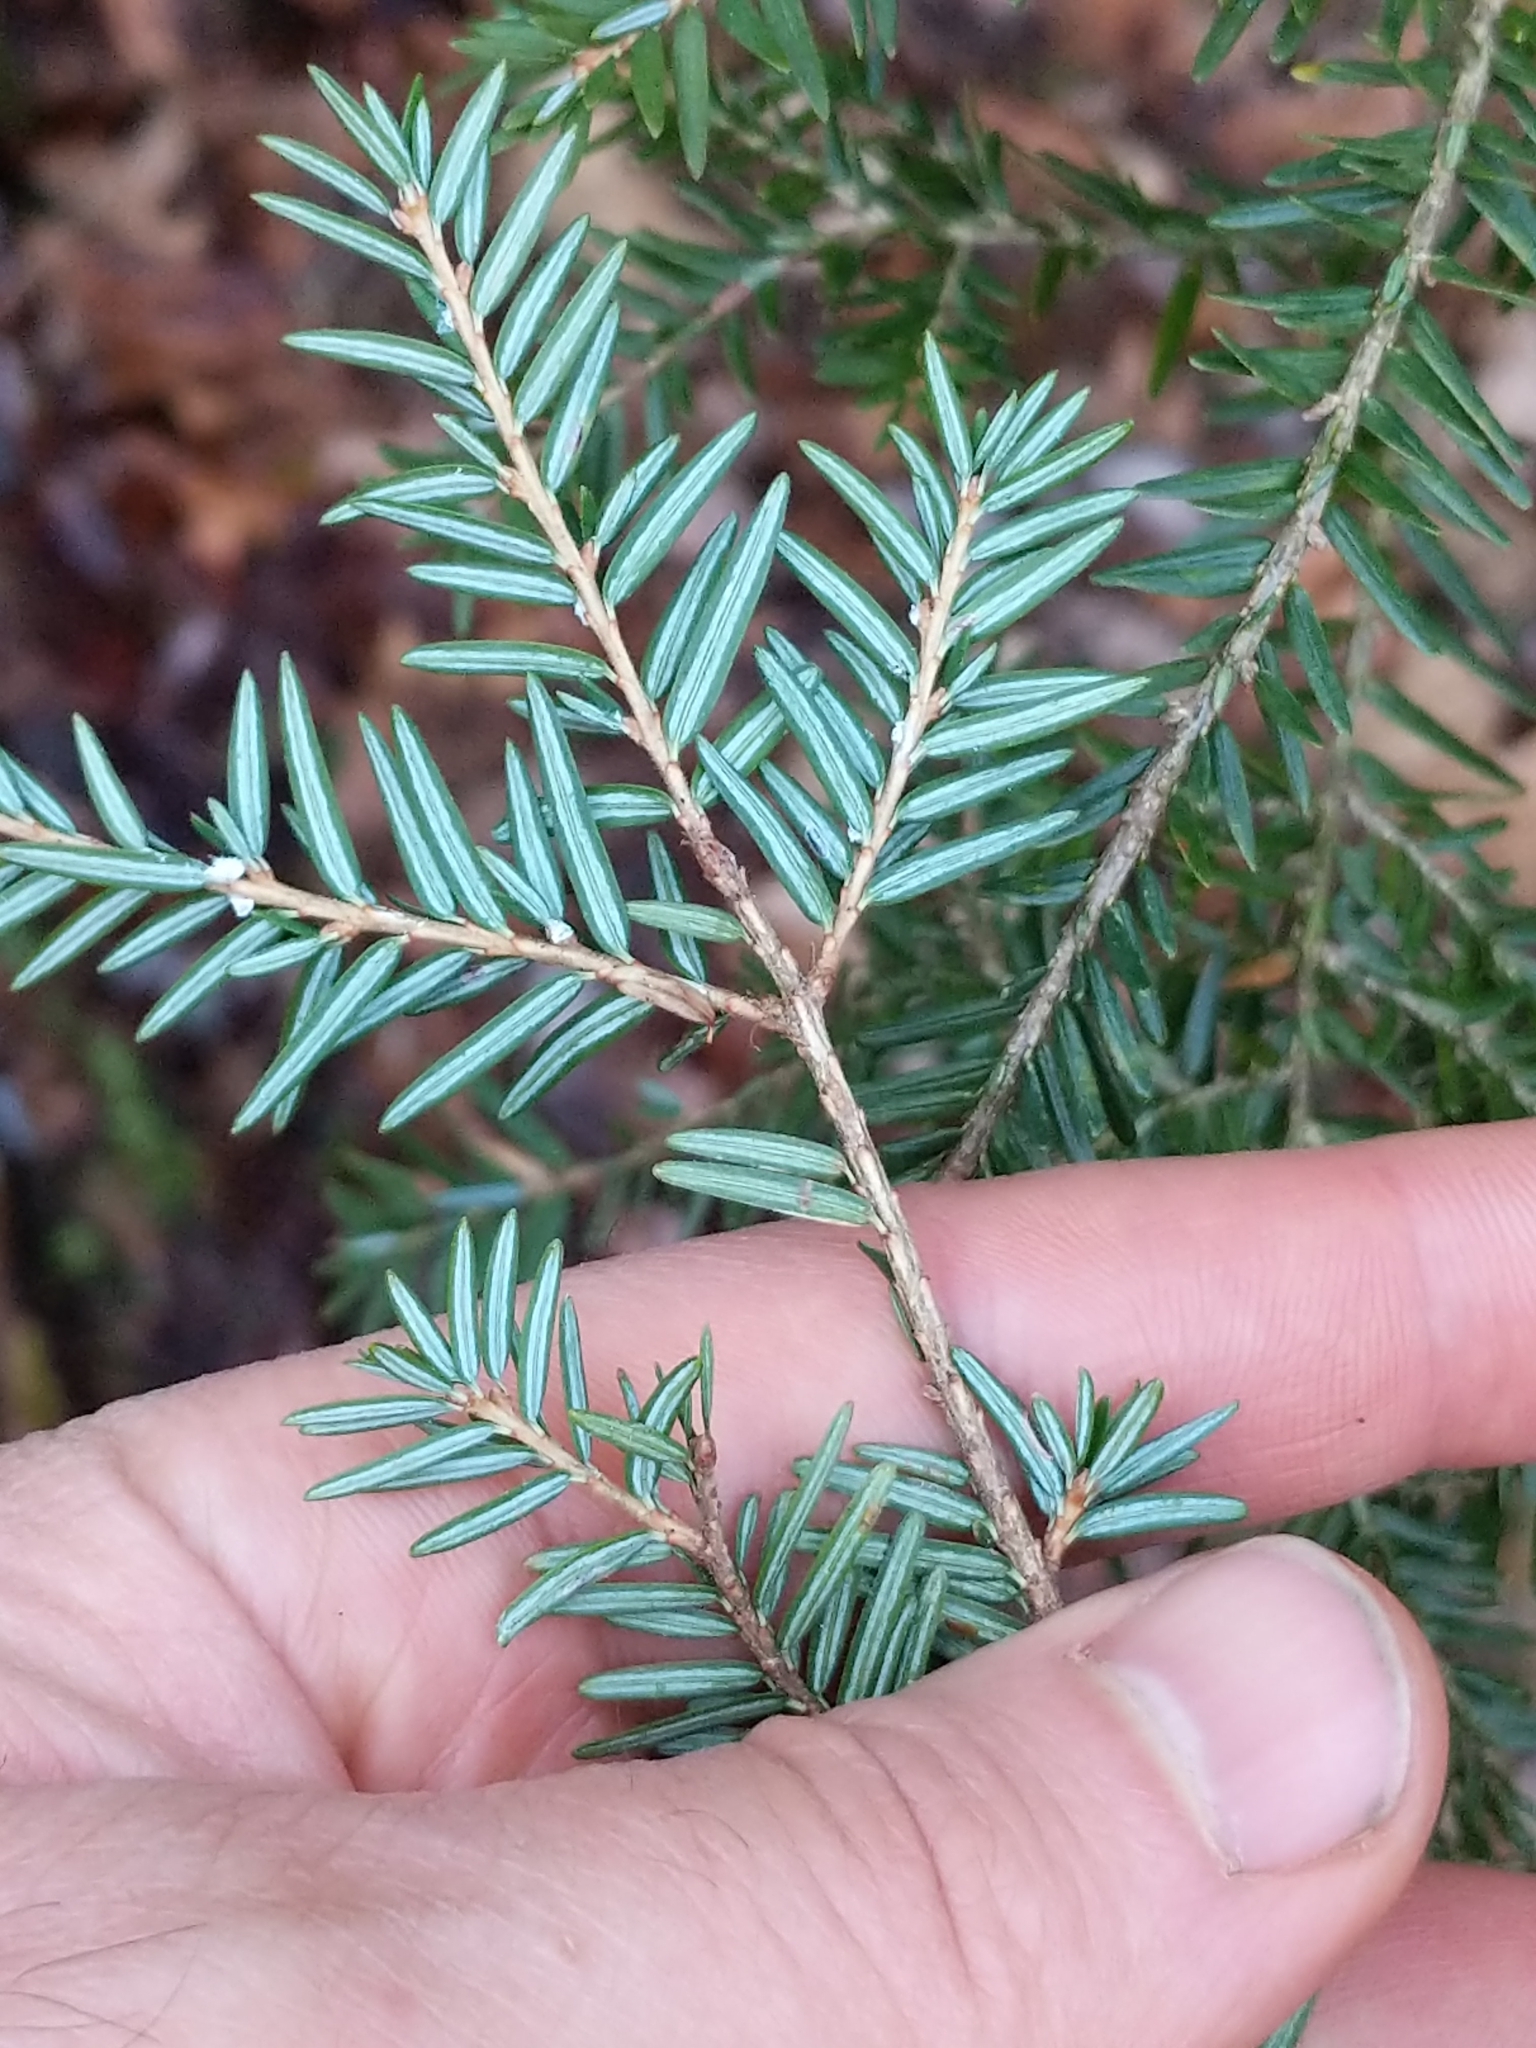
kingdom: Plantae
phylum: Tracheophyta
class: Pinopsida
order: Pinales
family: Pinaceae
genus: Tsuga
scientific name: Tsuga canadensis
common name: Eastern hemlock
